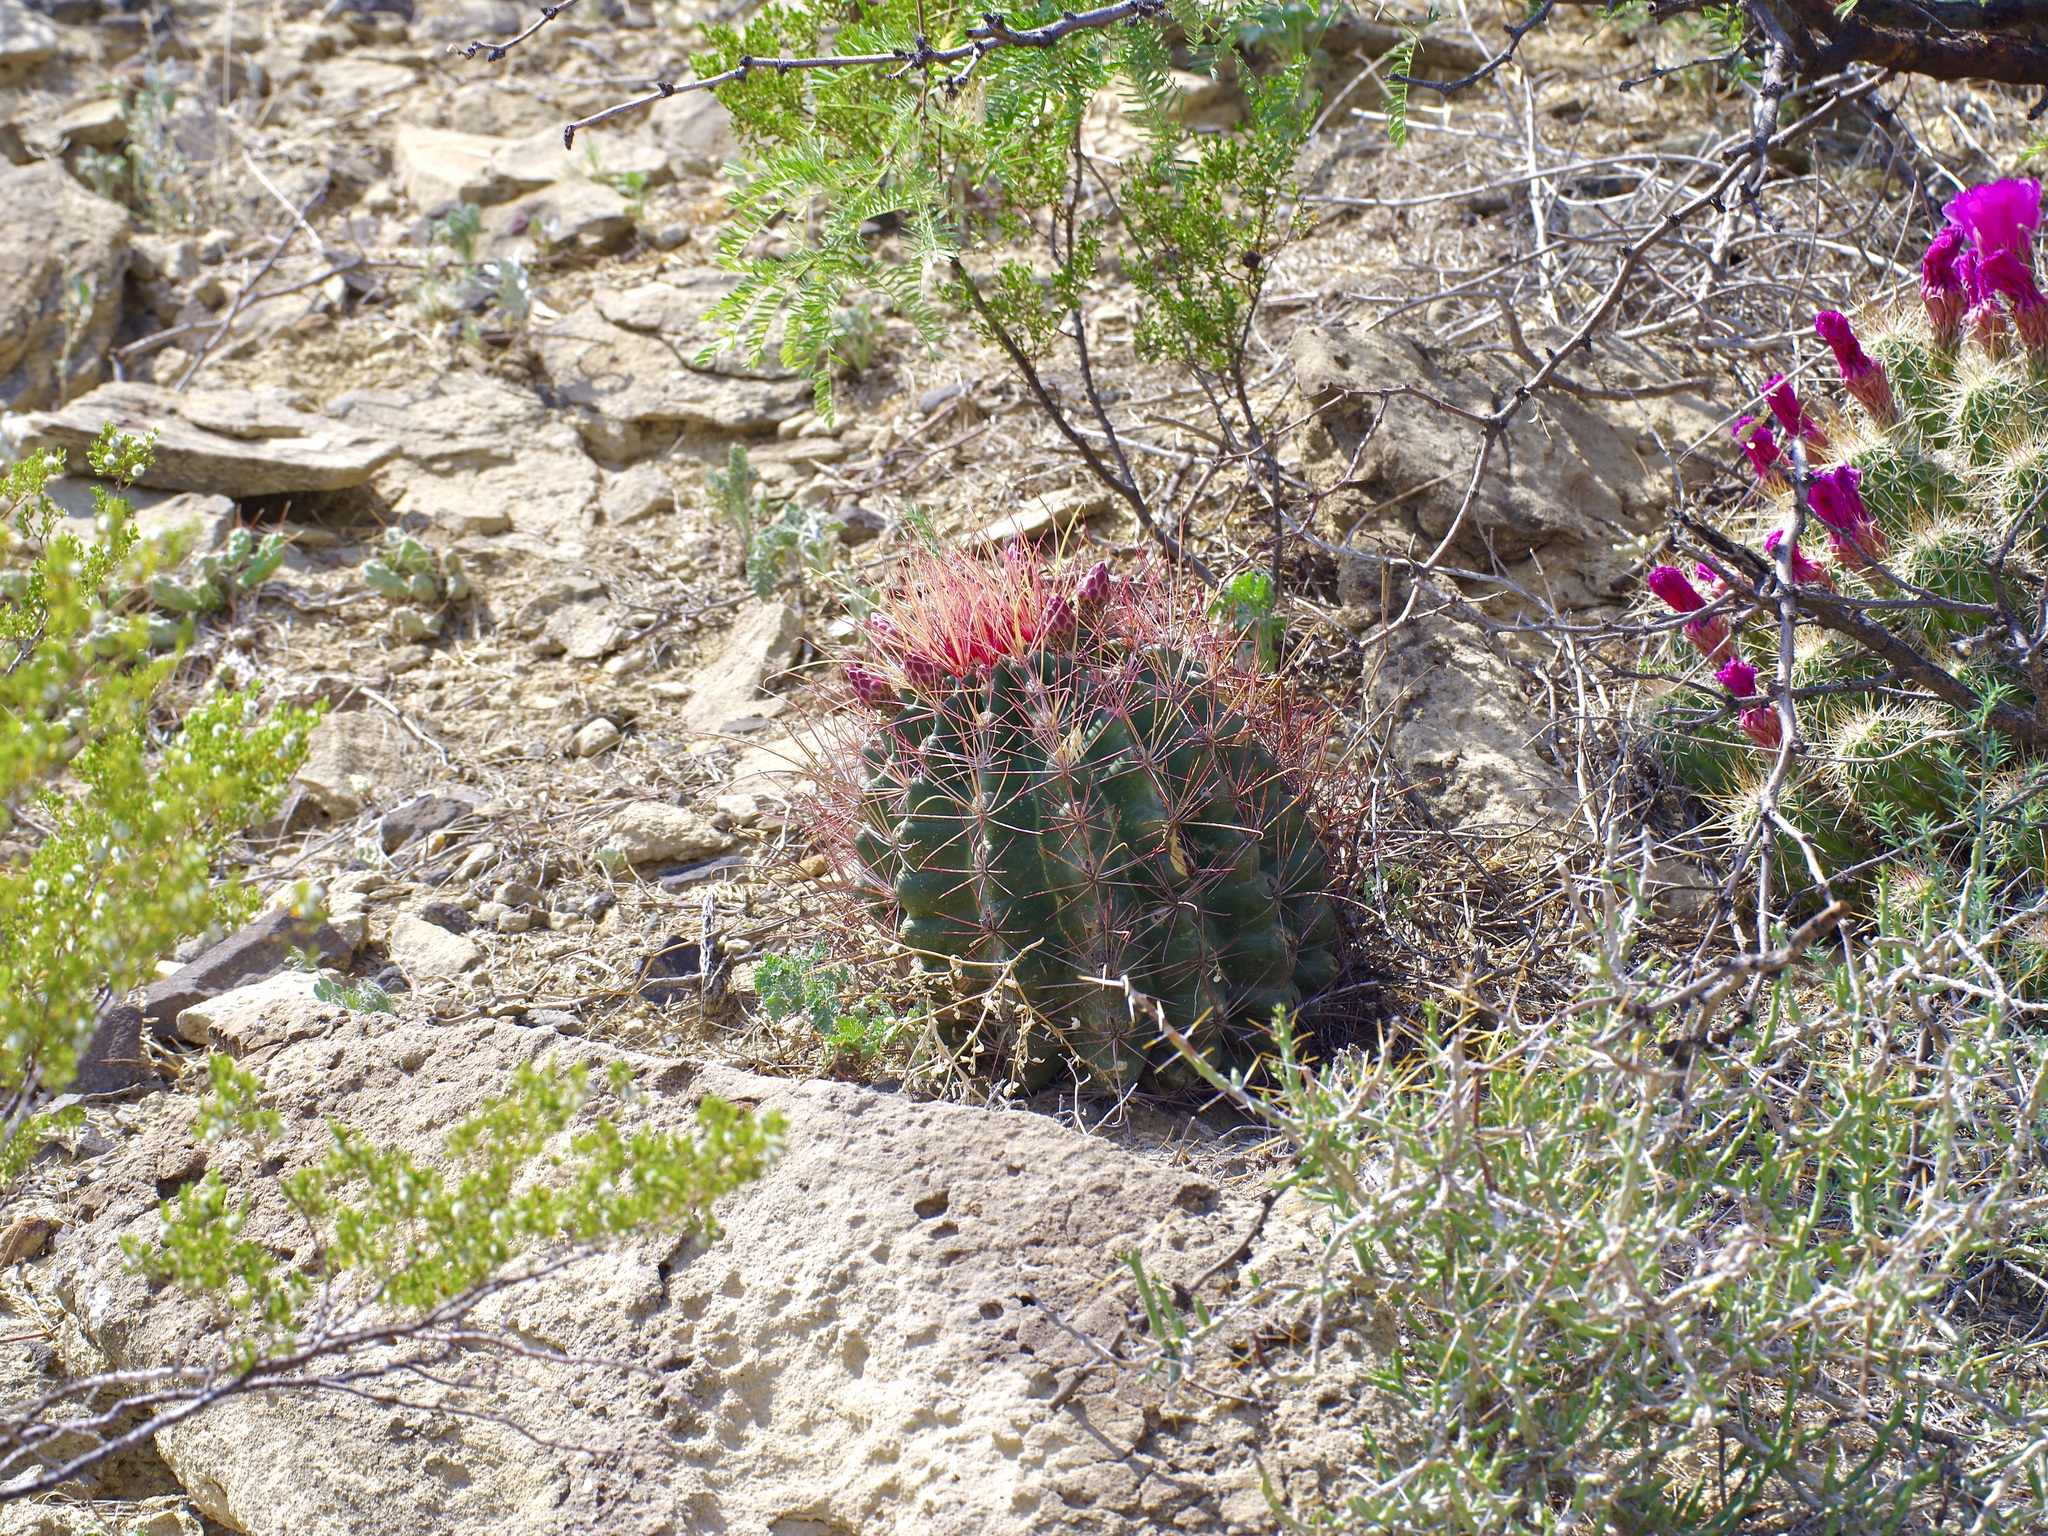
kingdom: Plantae
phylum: Tracheophyta
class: Magnoliopsida
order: Caryophyllales
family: Cactaceae
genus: Bisnaga
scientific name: Bisnaga hamatacantha
